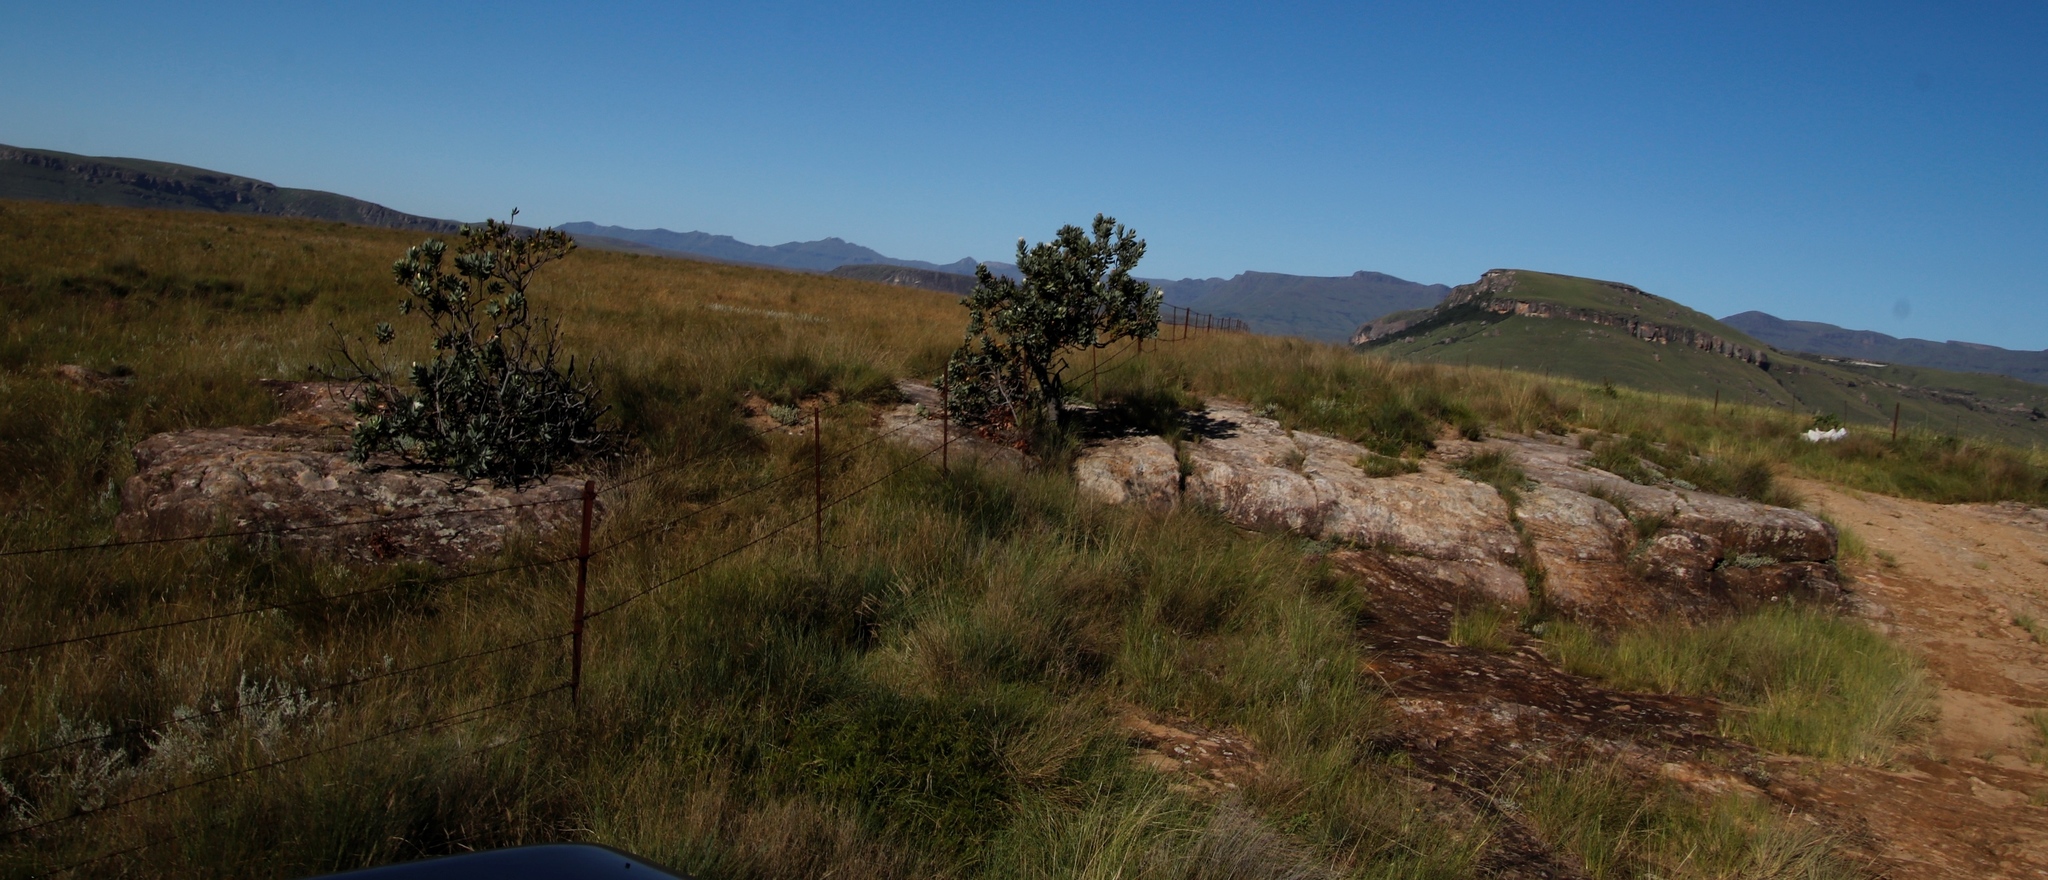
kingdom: Plantae
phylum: Tracheophyta
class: Magnoliopsida
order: Proteales
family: Proteaceae
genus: Protea
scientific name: Protea subvestita
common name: Lip-flower sugarbush
